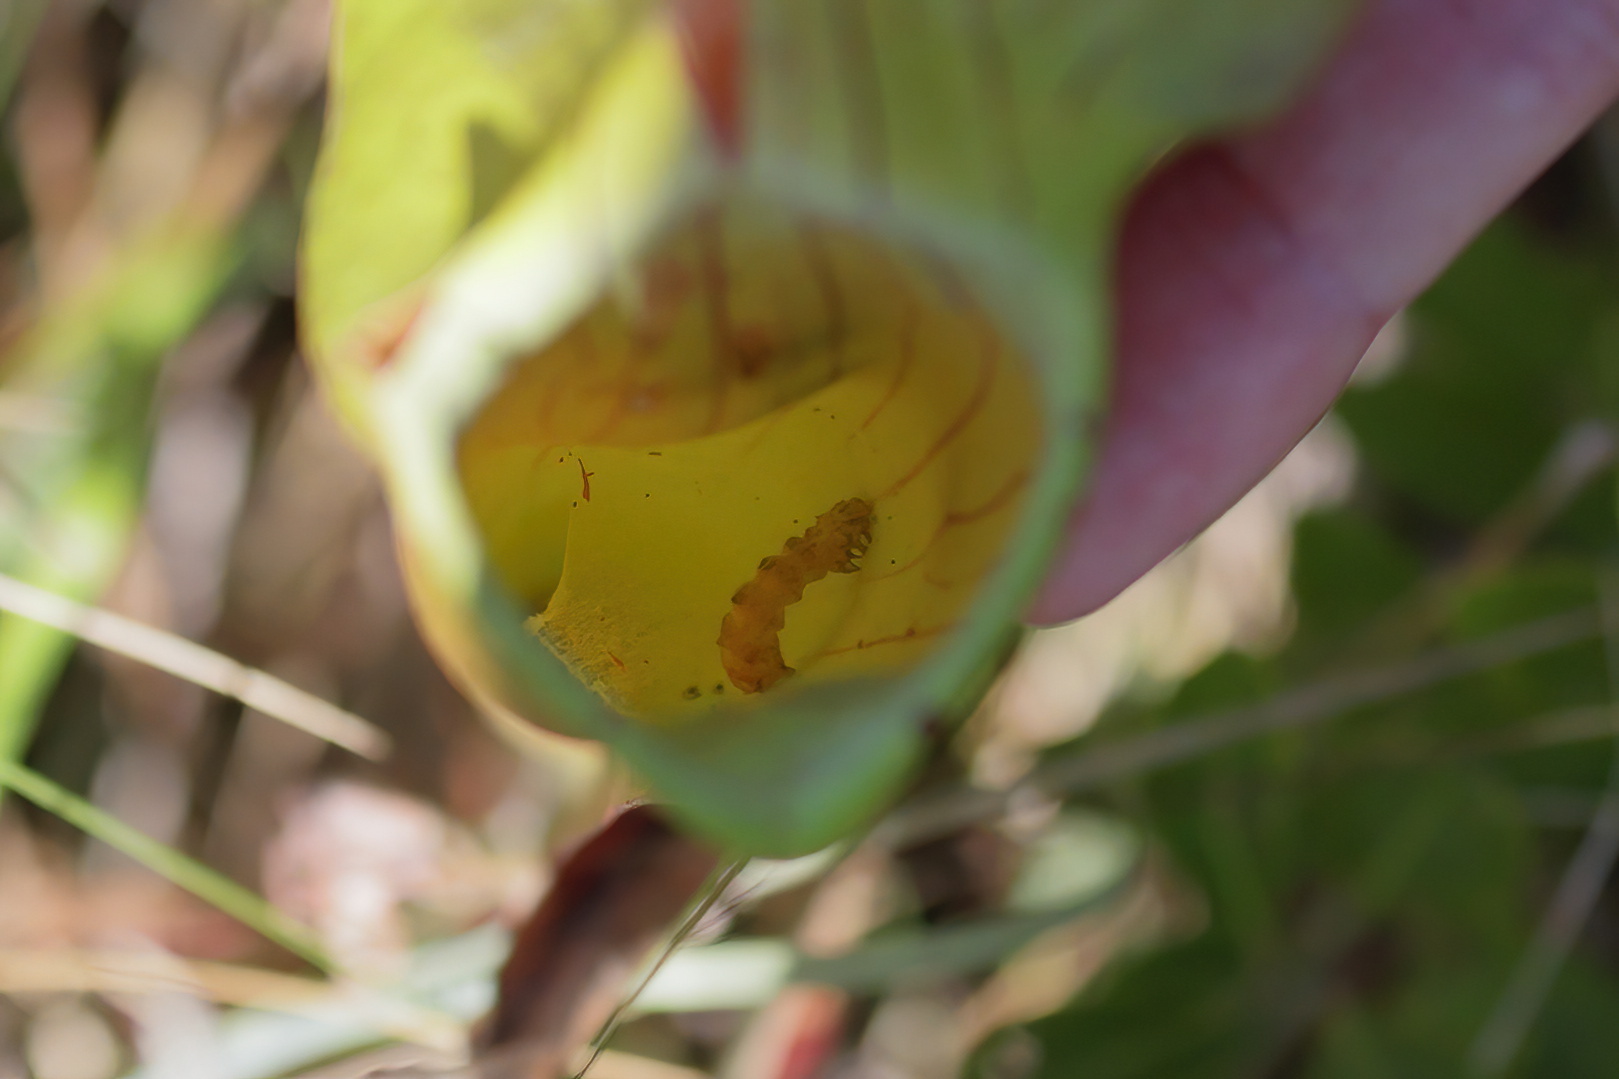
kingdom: Animalia
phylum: Arthropoda
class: Insecta
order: Lepidoptera
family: Noctuidae
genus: Exyra
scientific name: Exyra semicrocea
